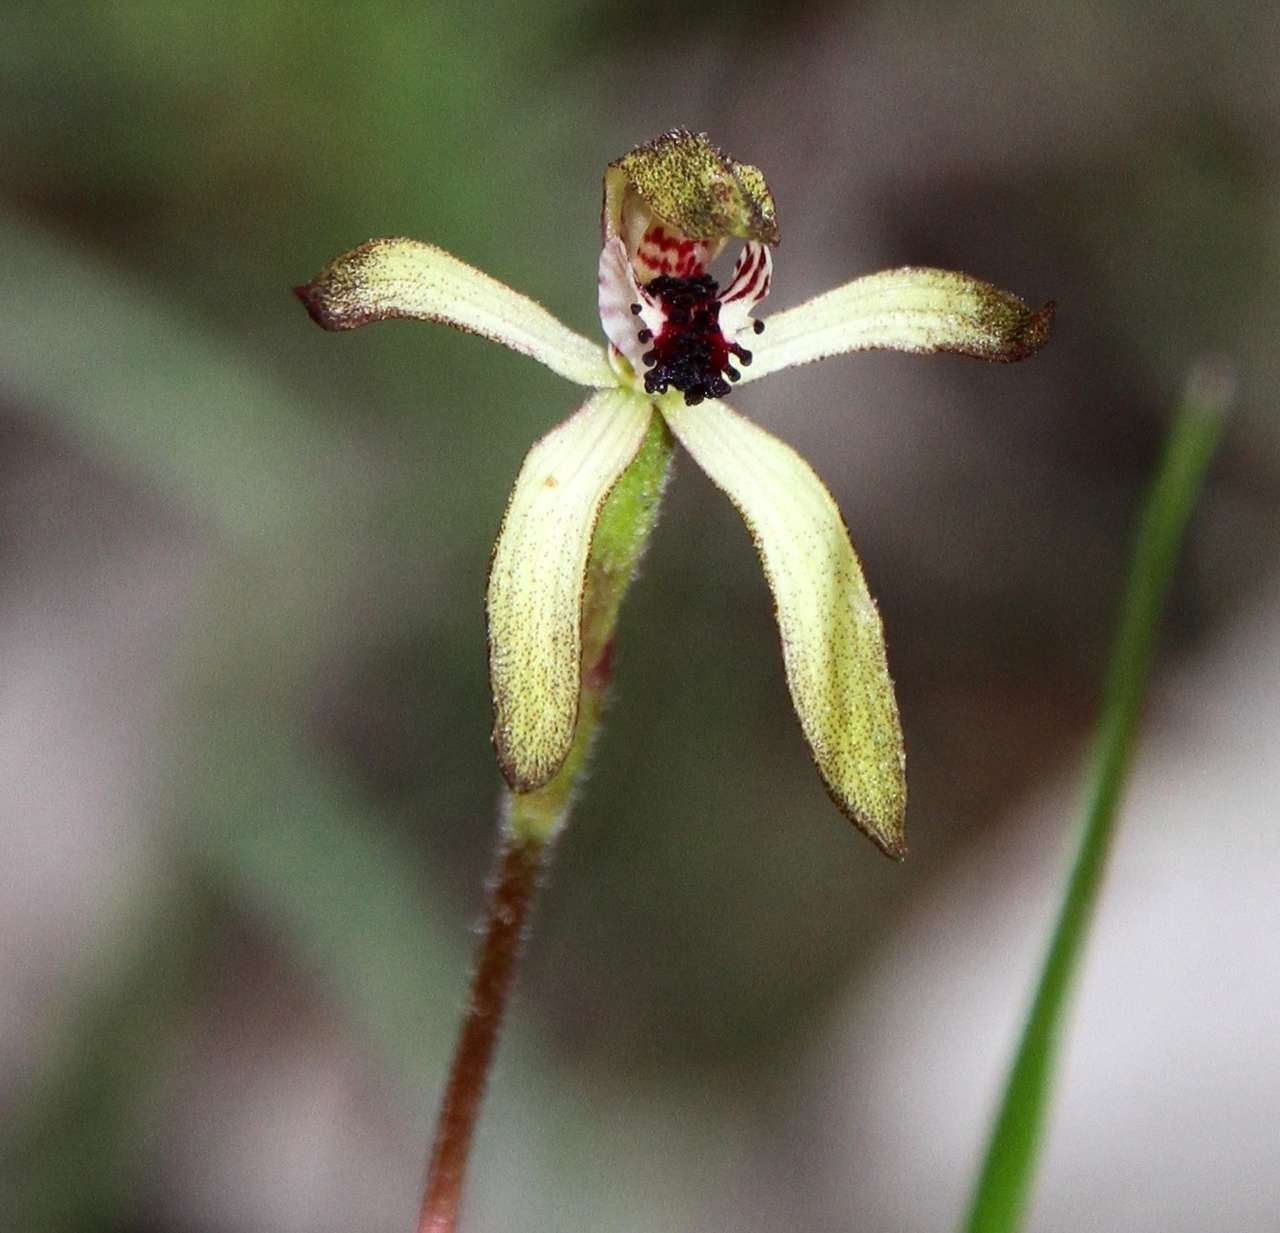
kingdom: Plantae
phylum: Tracheophyta
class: Liliopsida
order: Asparagales
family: Orchidaceae
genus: Caladenia
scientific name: Caladenia transitoria
